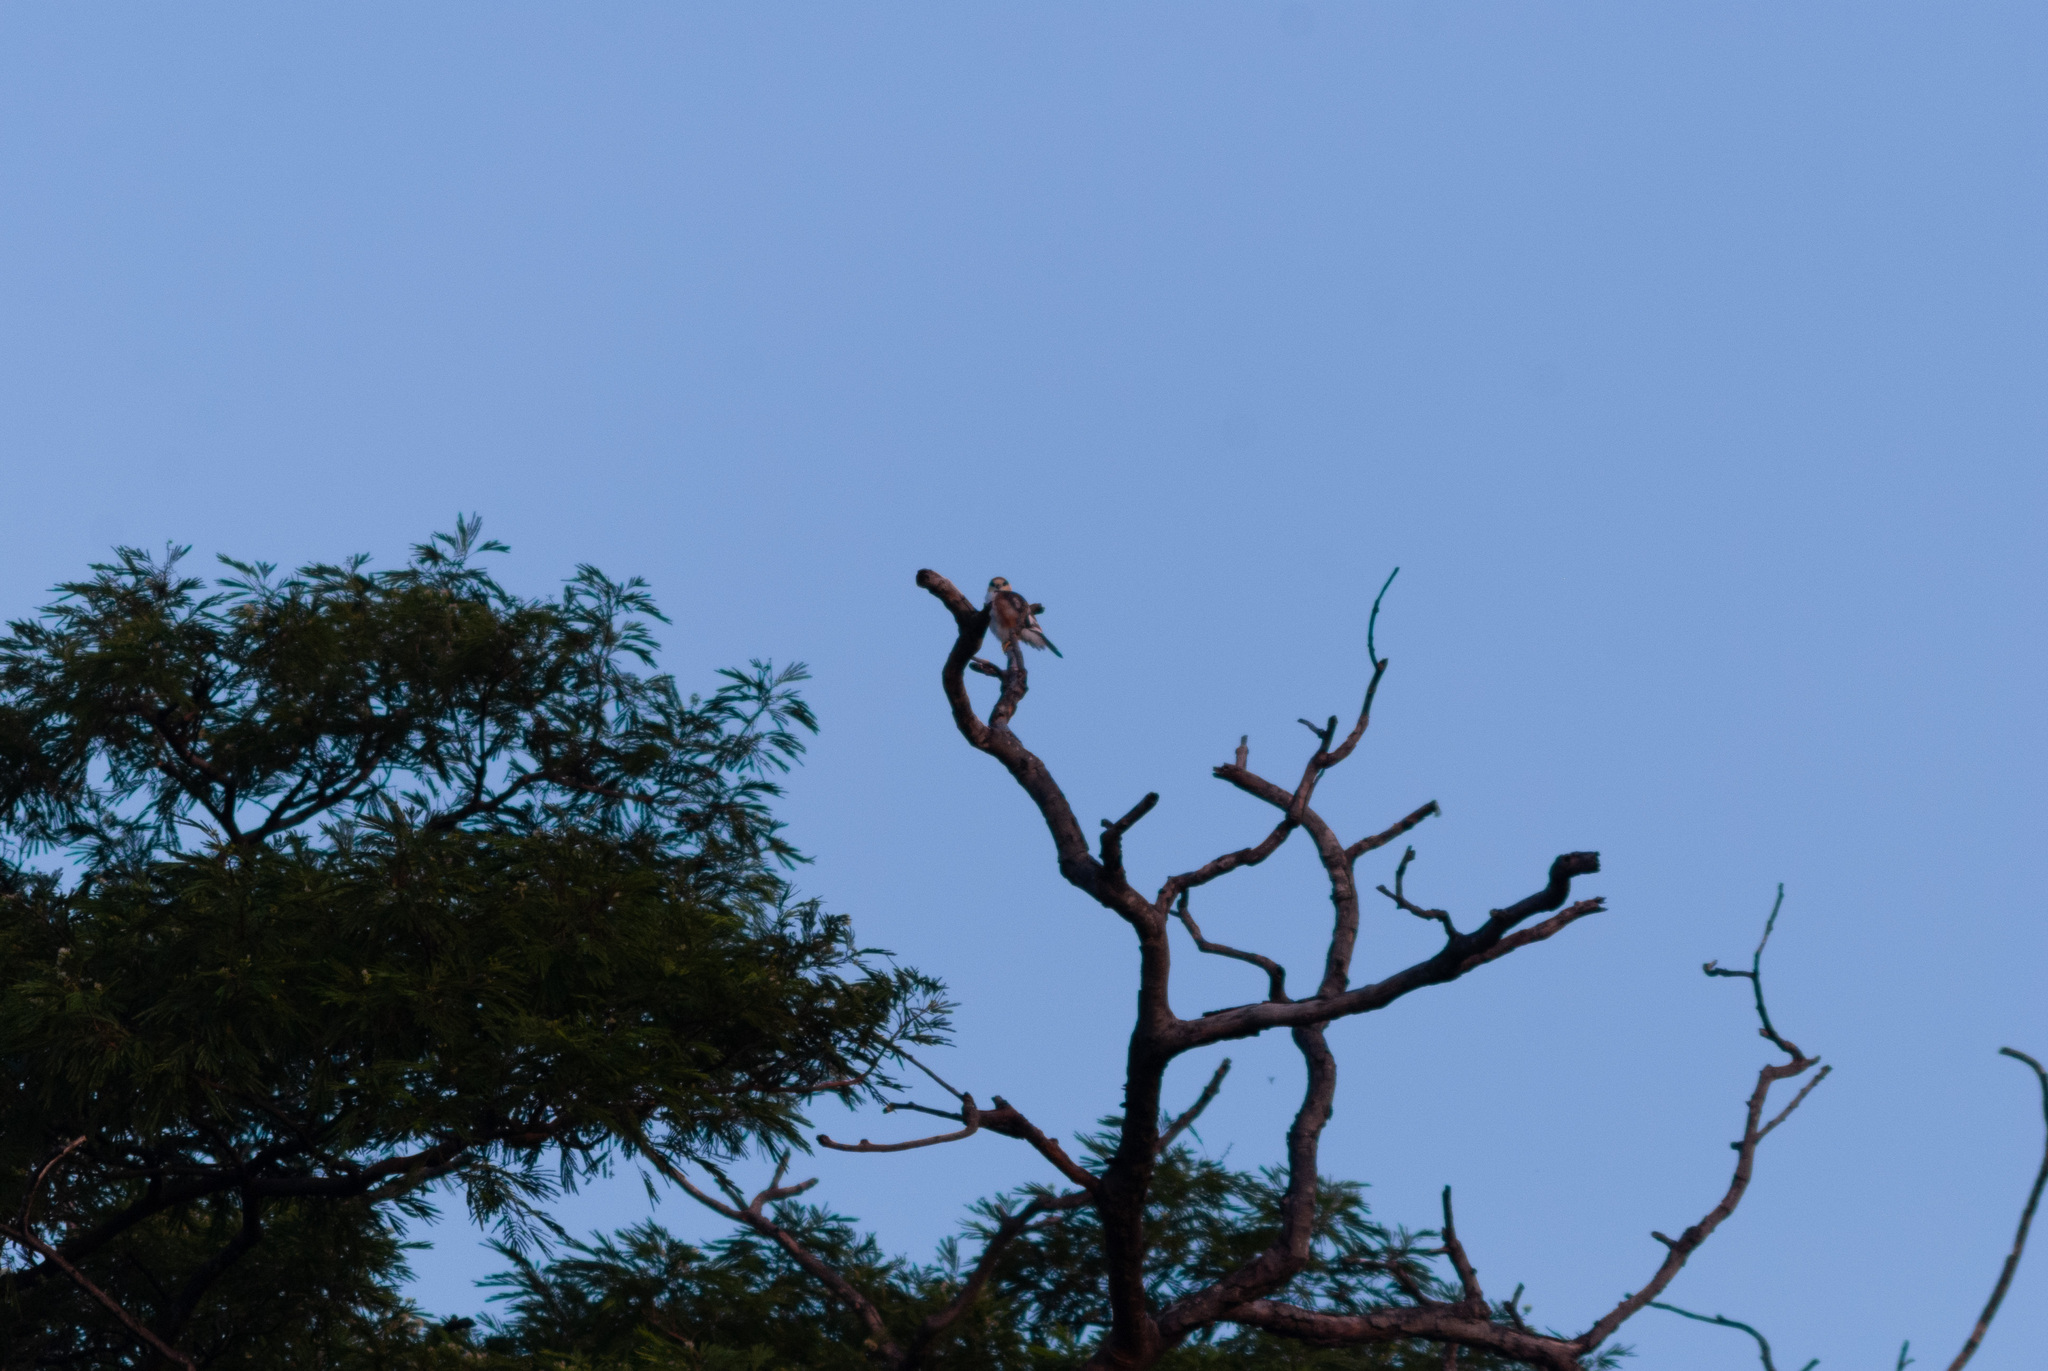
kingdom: Animalia
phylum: Chordata
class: Aves
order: Accipitriformes
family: Accipitridae
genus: Gampsonyx
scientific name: Gampsonyx swainsonii
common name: Pearl kite
